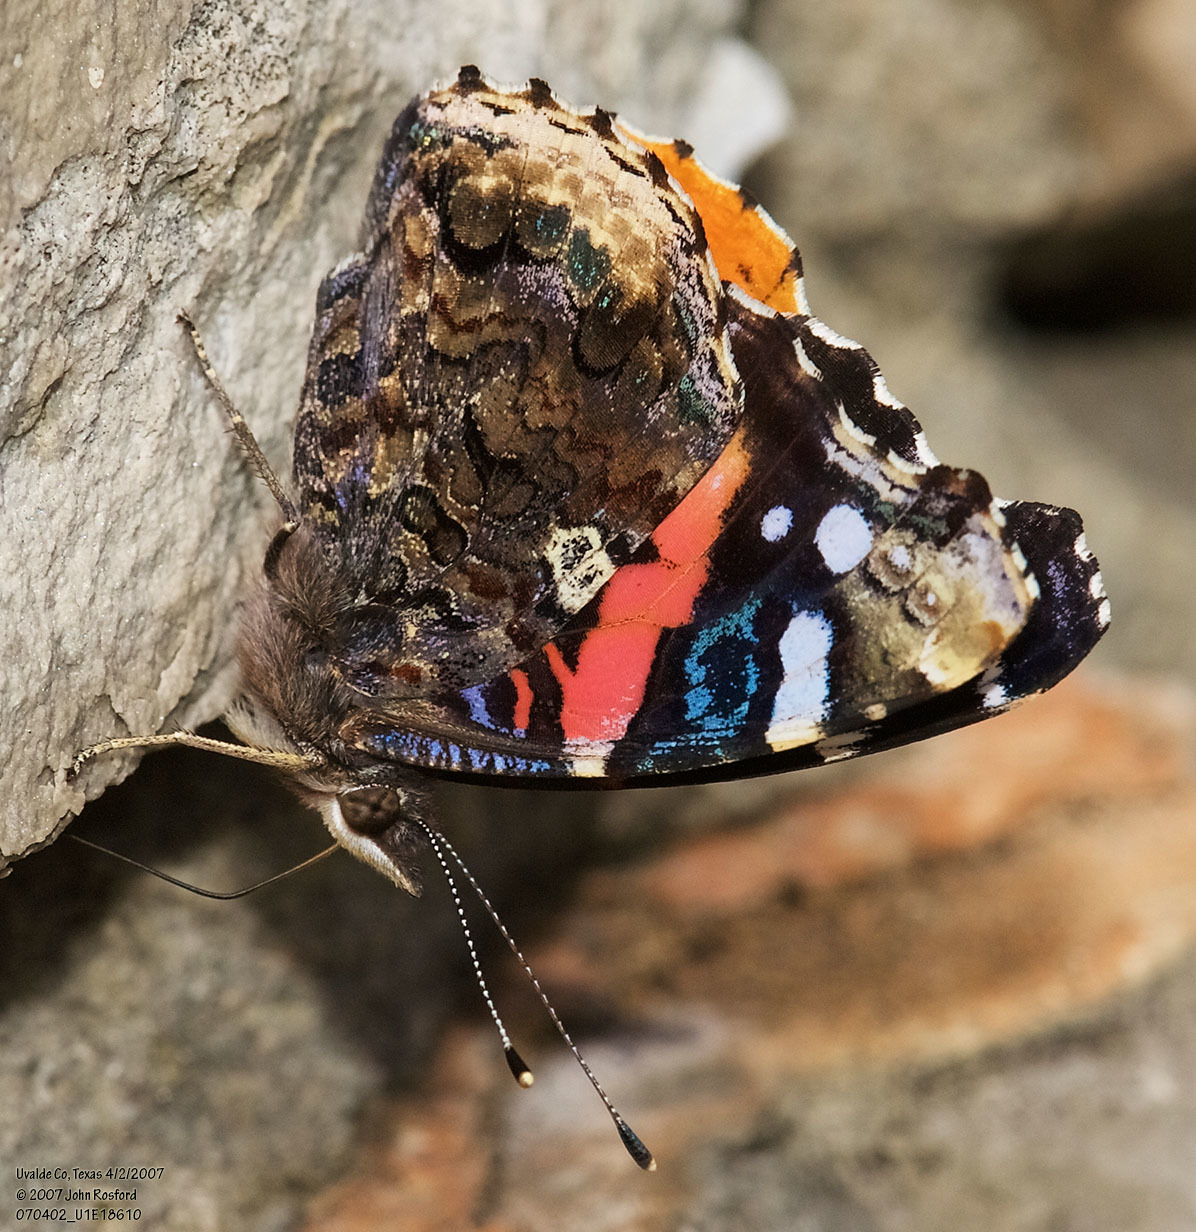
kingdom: Animalia
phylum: Arthropoda
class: Insecta
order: Lepidoptera
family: Nymphalidae
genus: Vanessa
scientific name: Vanessa atalanta
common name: Red admiral
